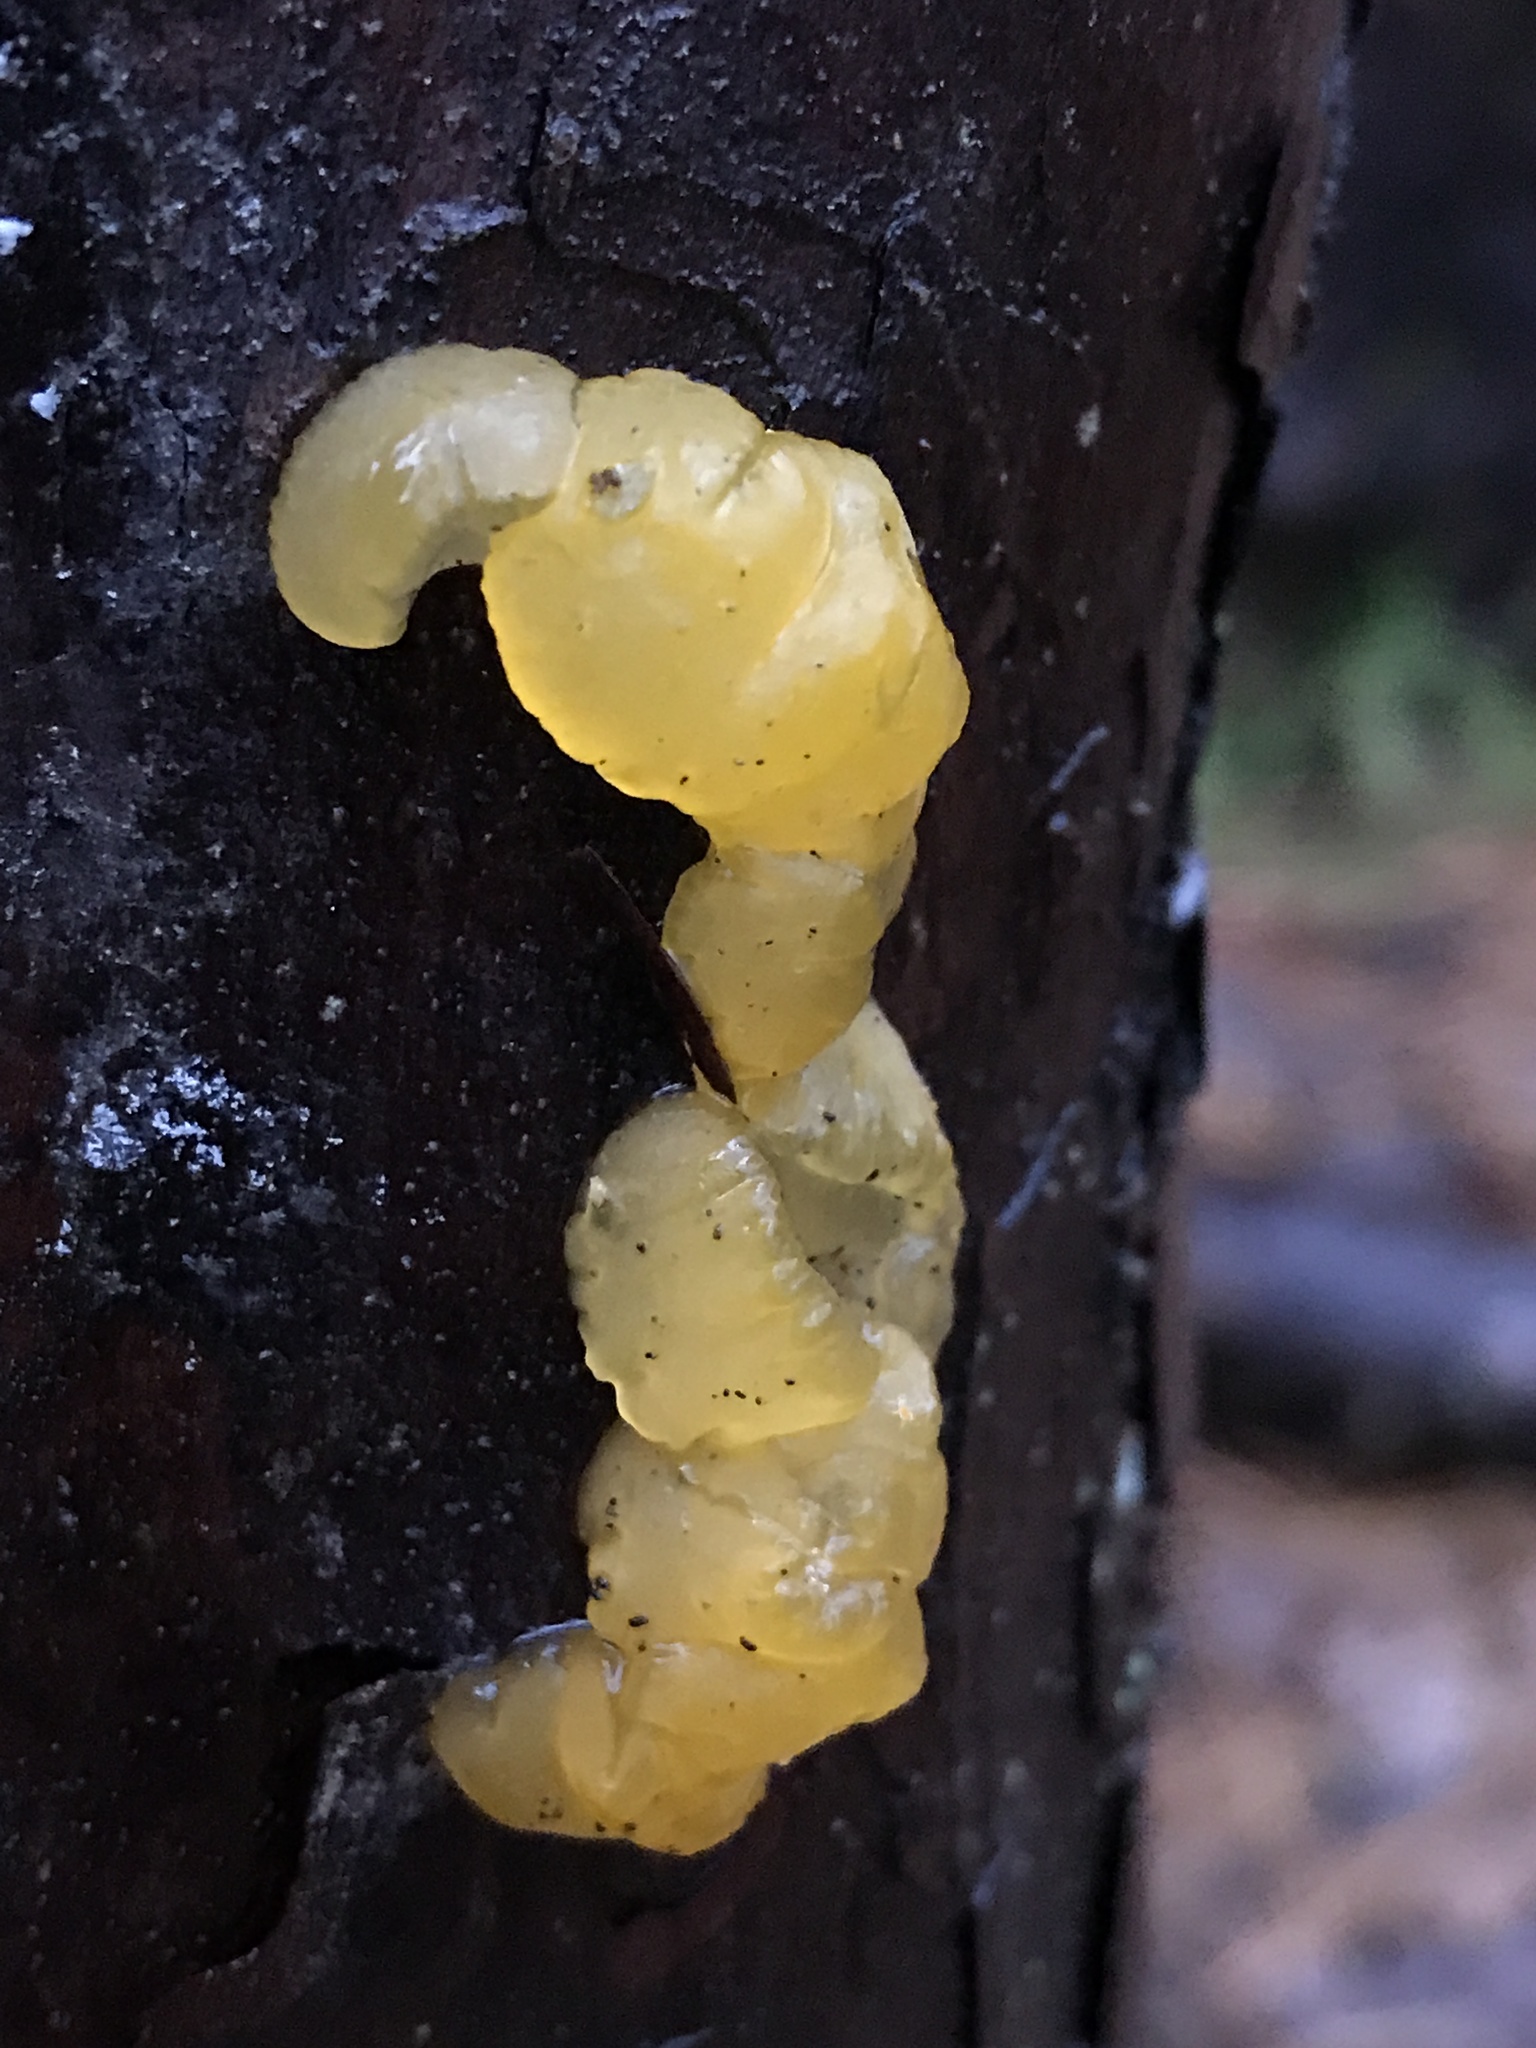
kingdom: Fungi
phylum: Basidiomycota
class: Dacrymycetes
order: Dacrymycetales
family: Dacrymycetaceae
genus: Dacrymyces
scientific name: Dacrymyces chrysospermus
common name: Orange jelly spot
